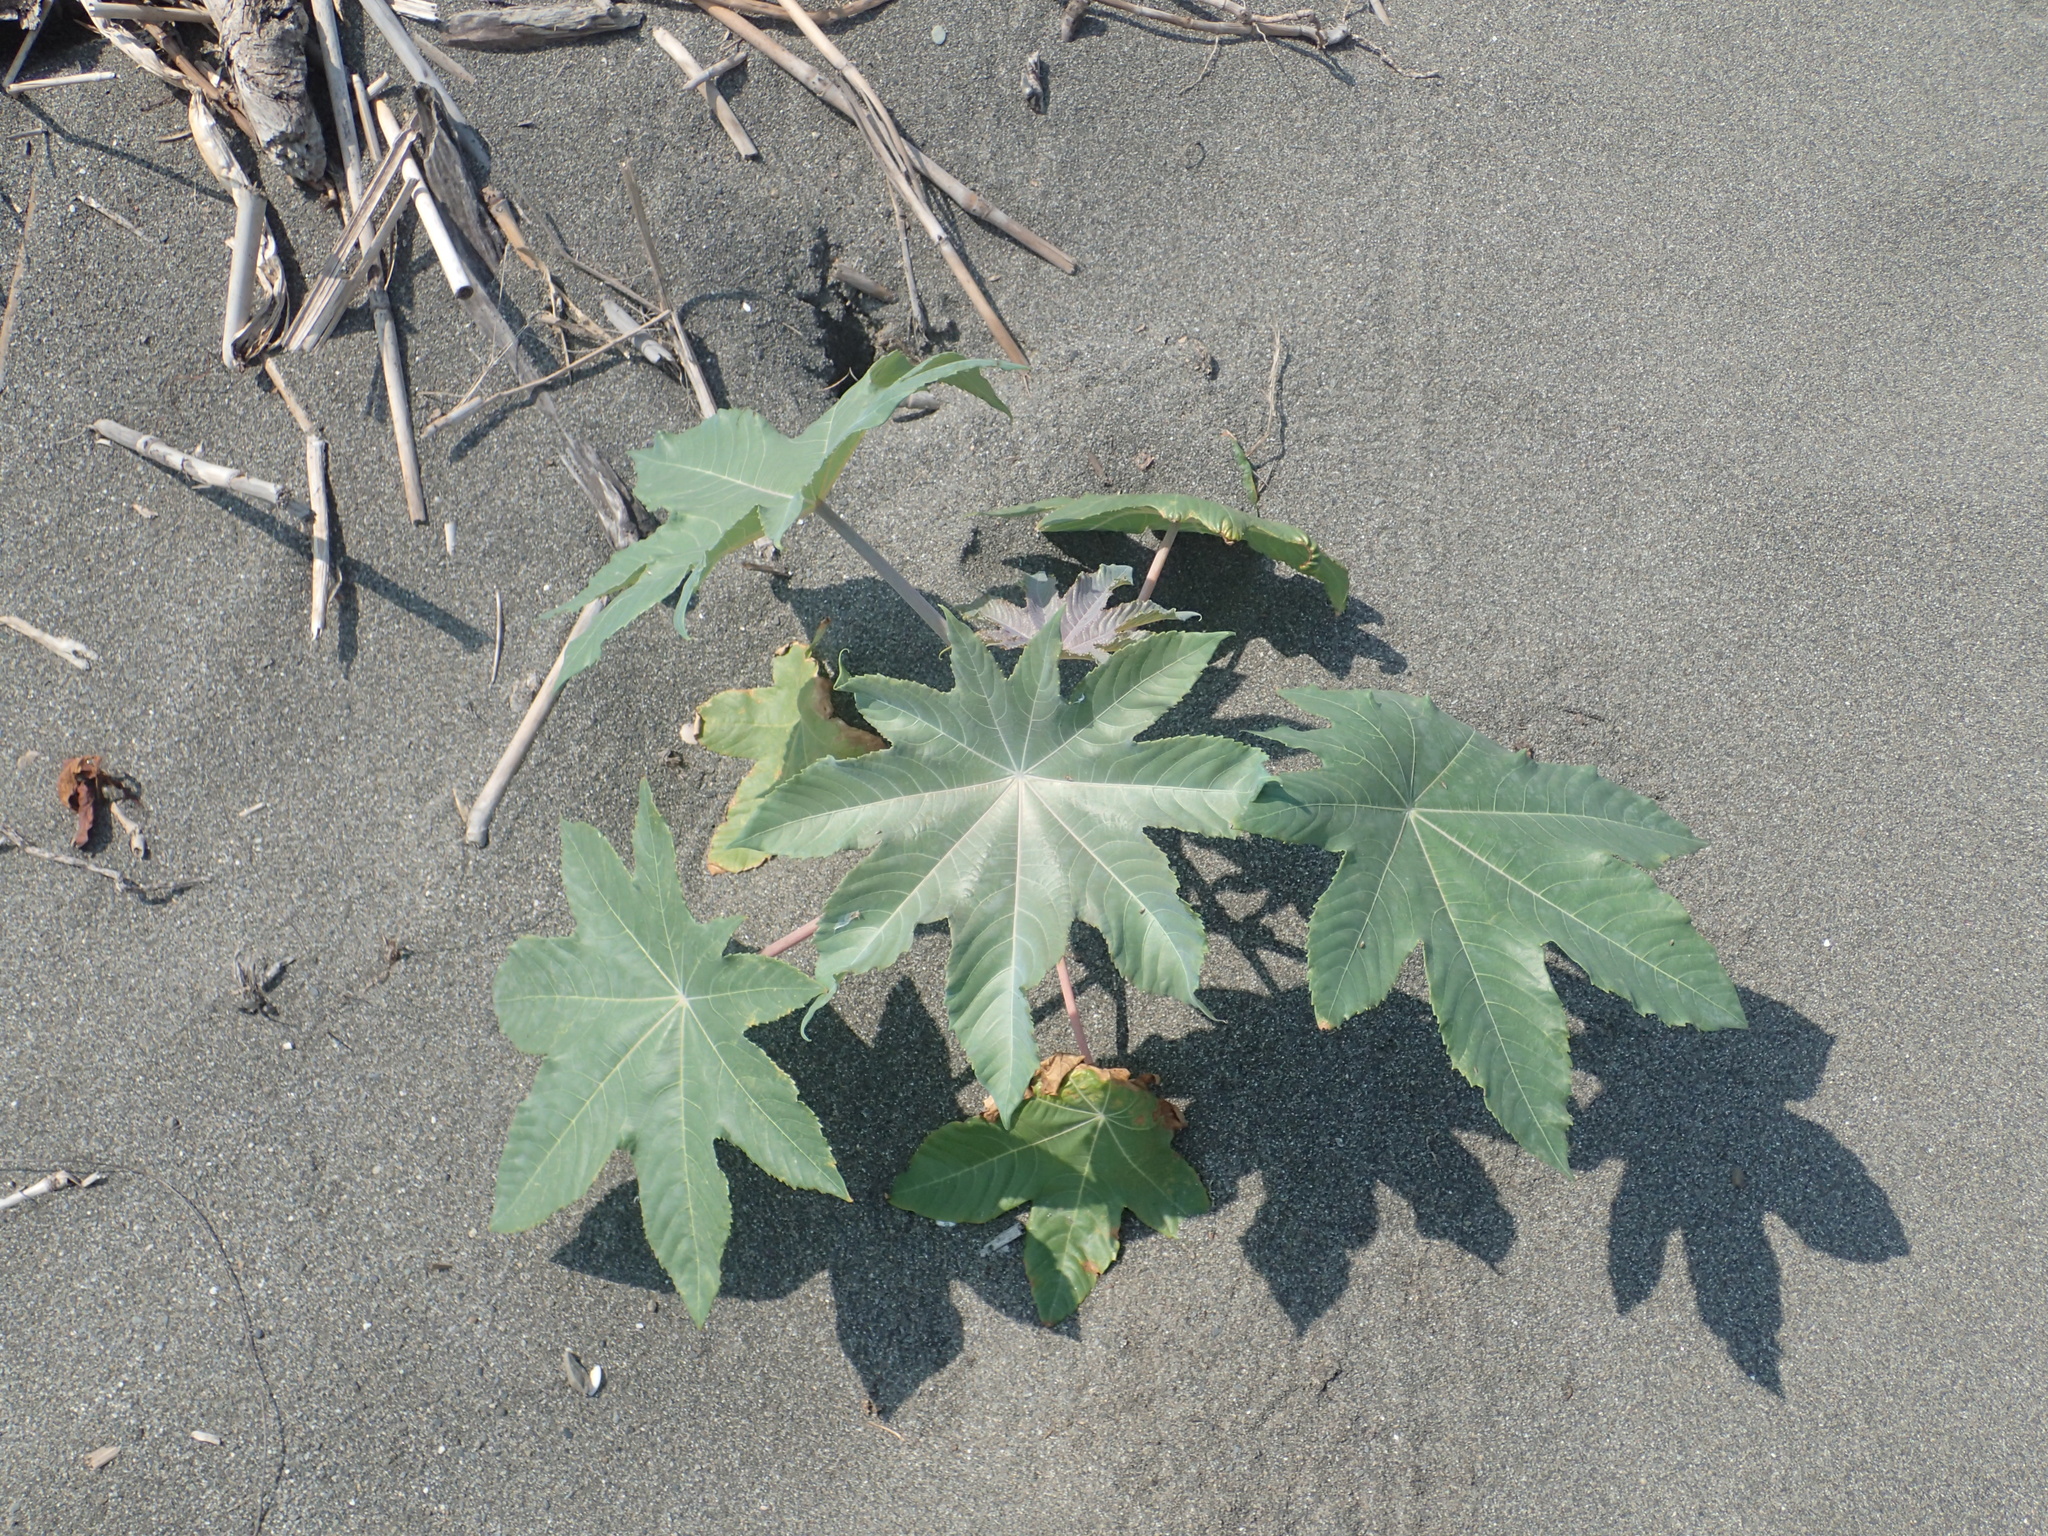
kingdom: Plantae
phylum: Tracheophyta
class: Magnoliopsida
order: Malpighiales
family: Euphorbiaceae
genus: Ricinus
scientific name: Ricinus communis
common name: Castor-oil-plant
